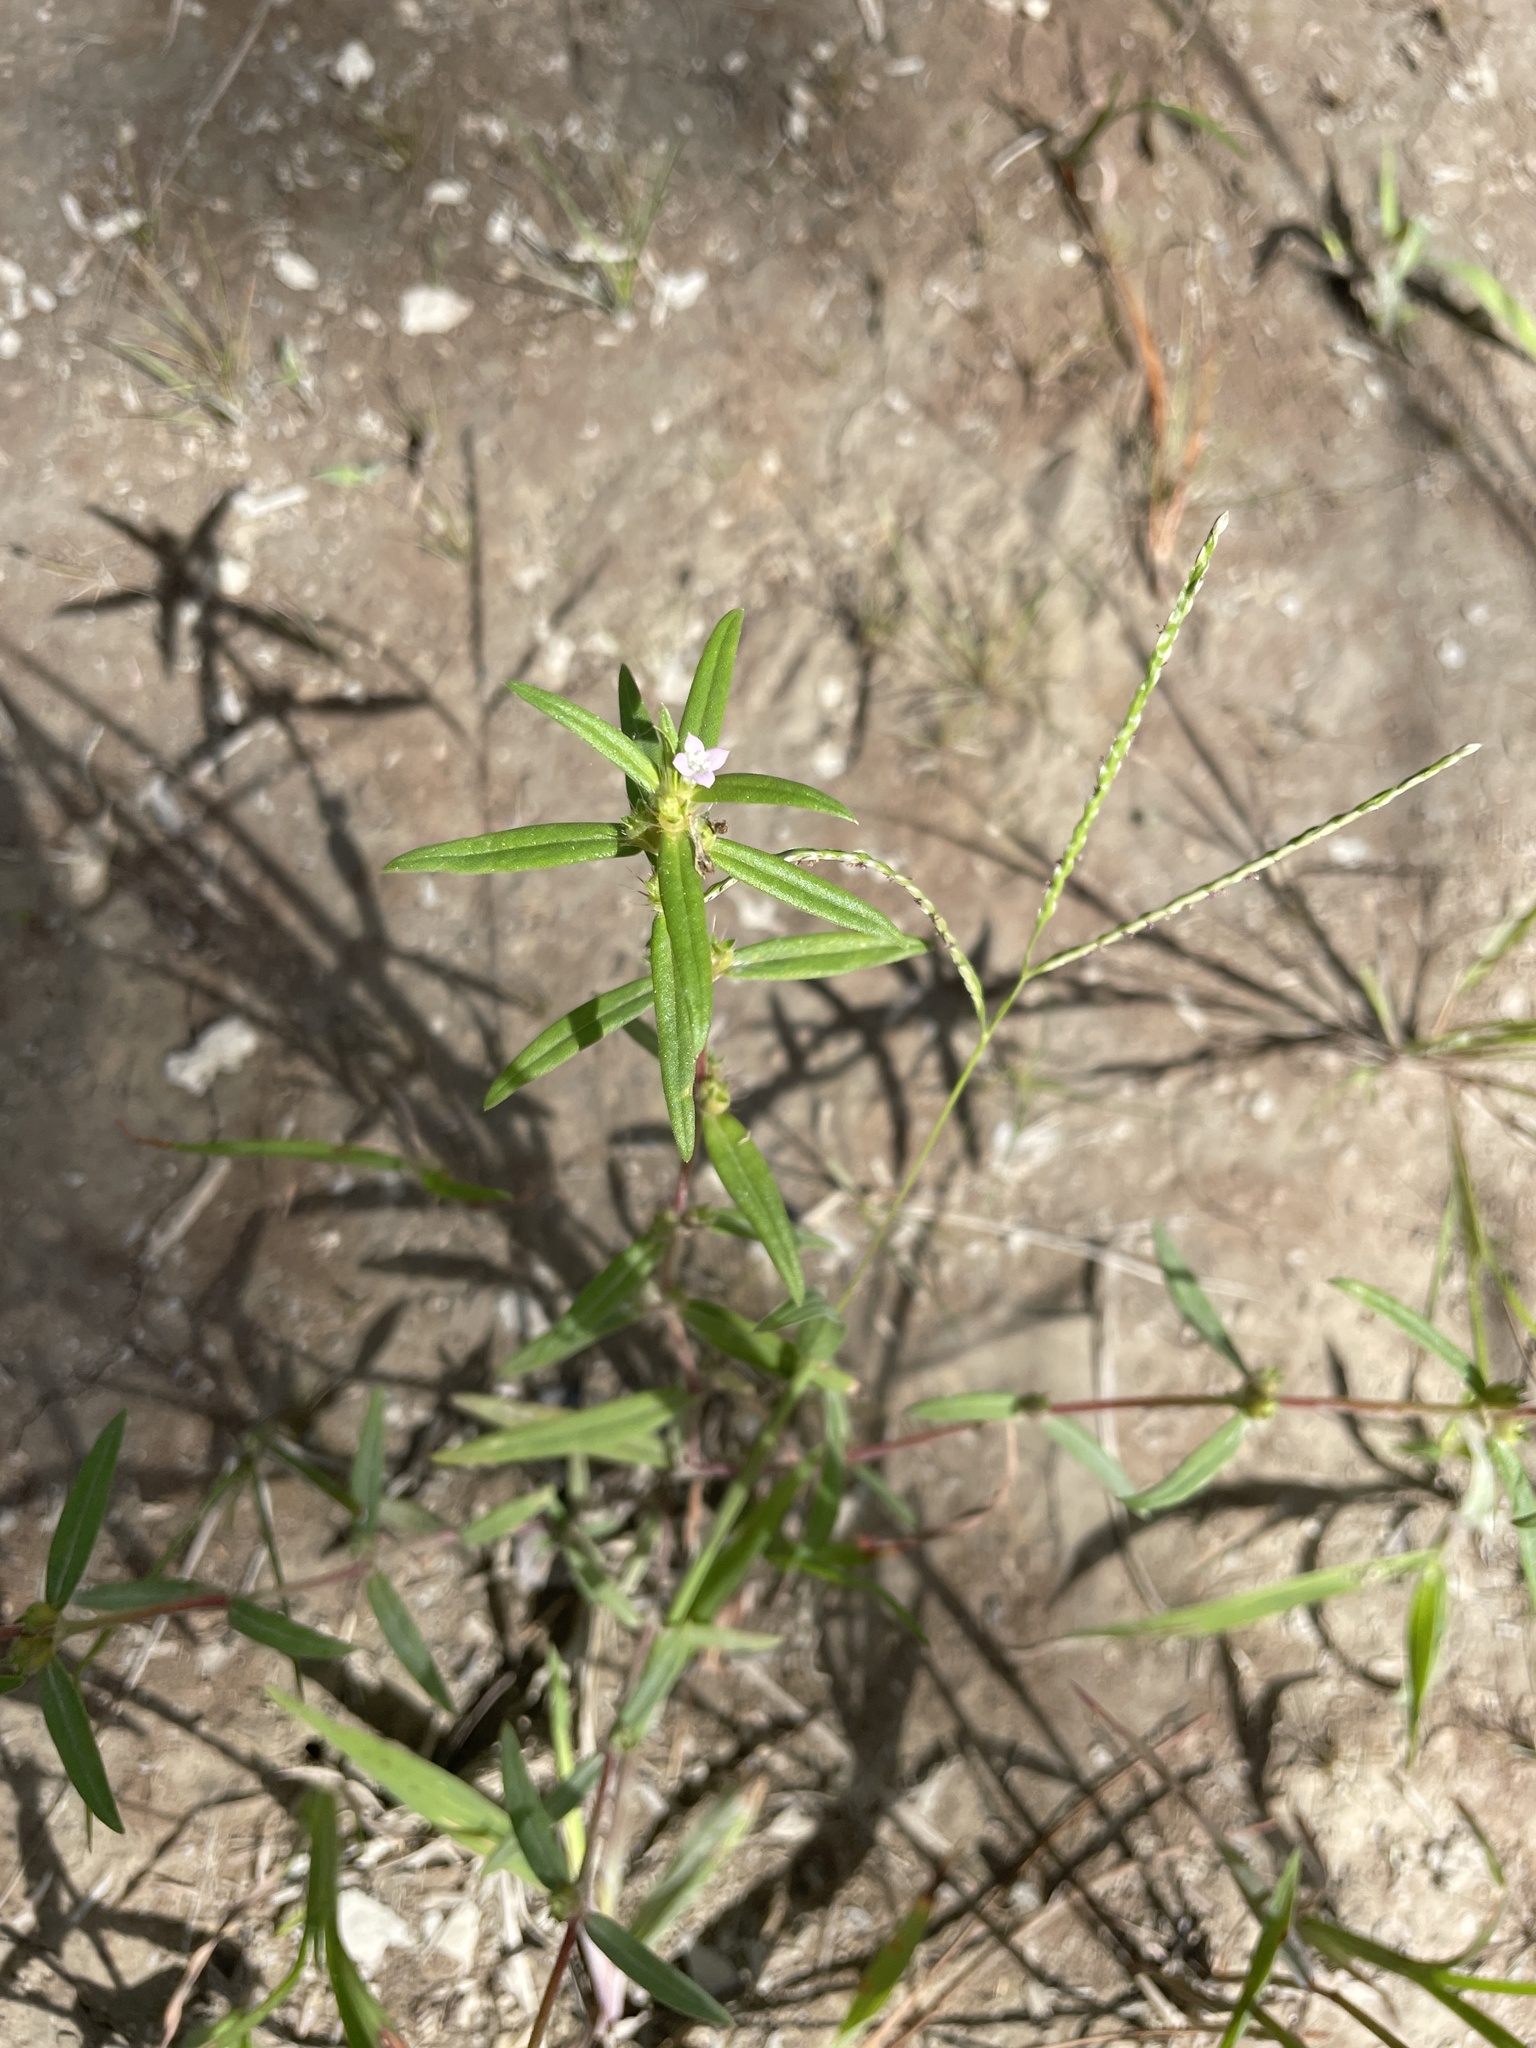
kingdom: Plantae
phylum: Tracheophyta
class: Magnoliopsida
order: Gentianales
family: Rubiaceae
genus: Hexasepalum
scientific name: Hexasepalum teres
